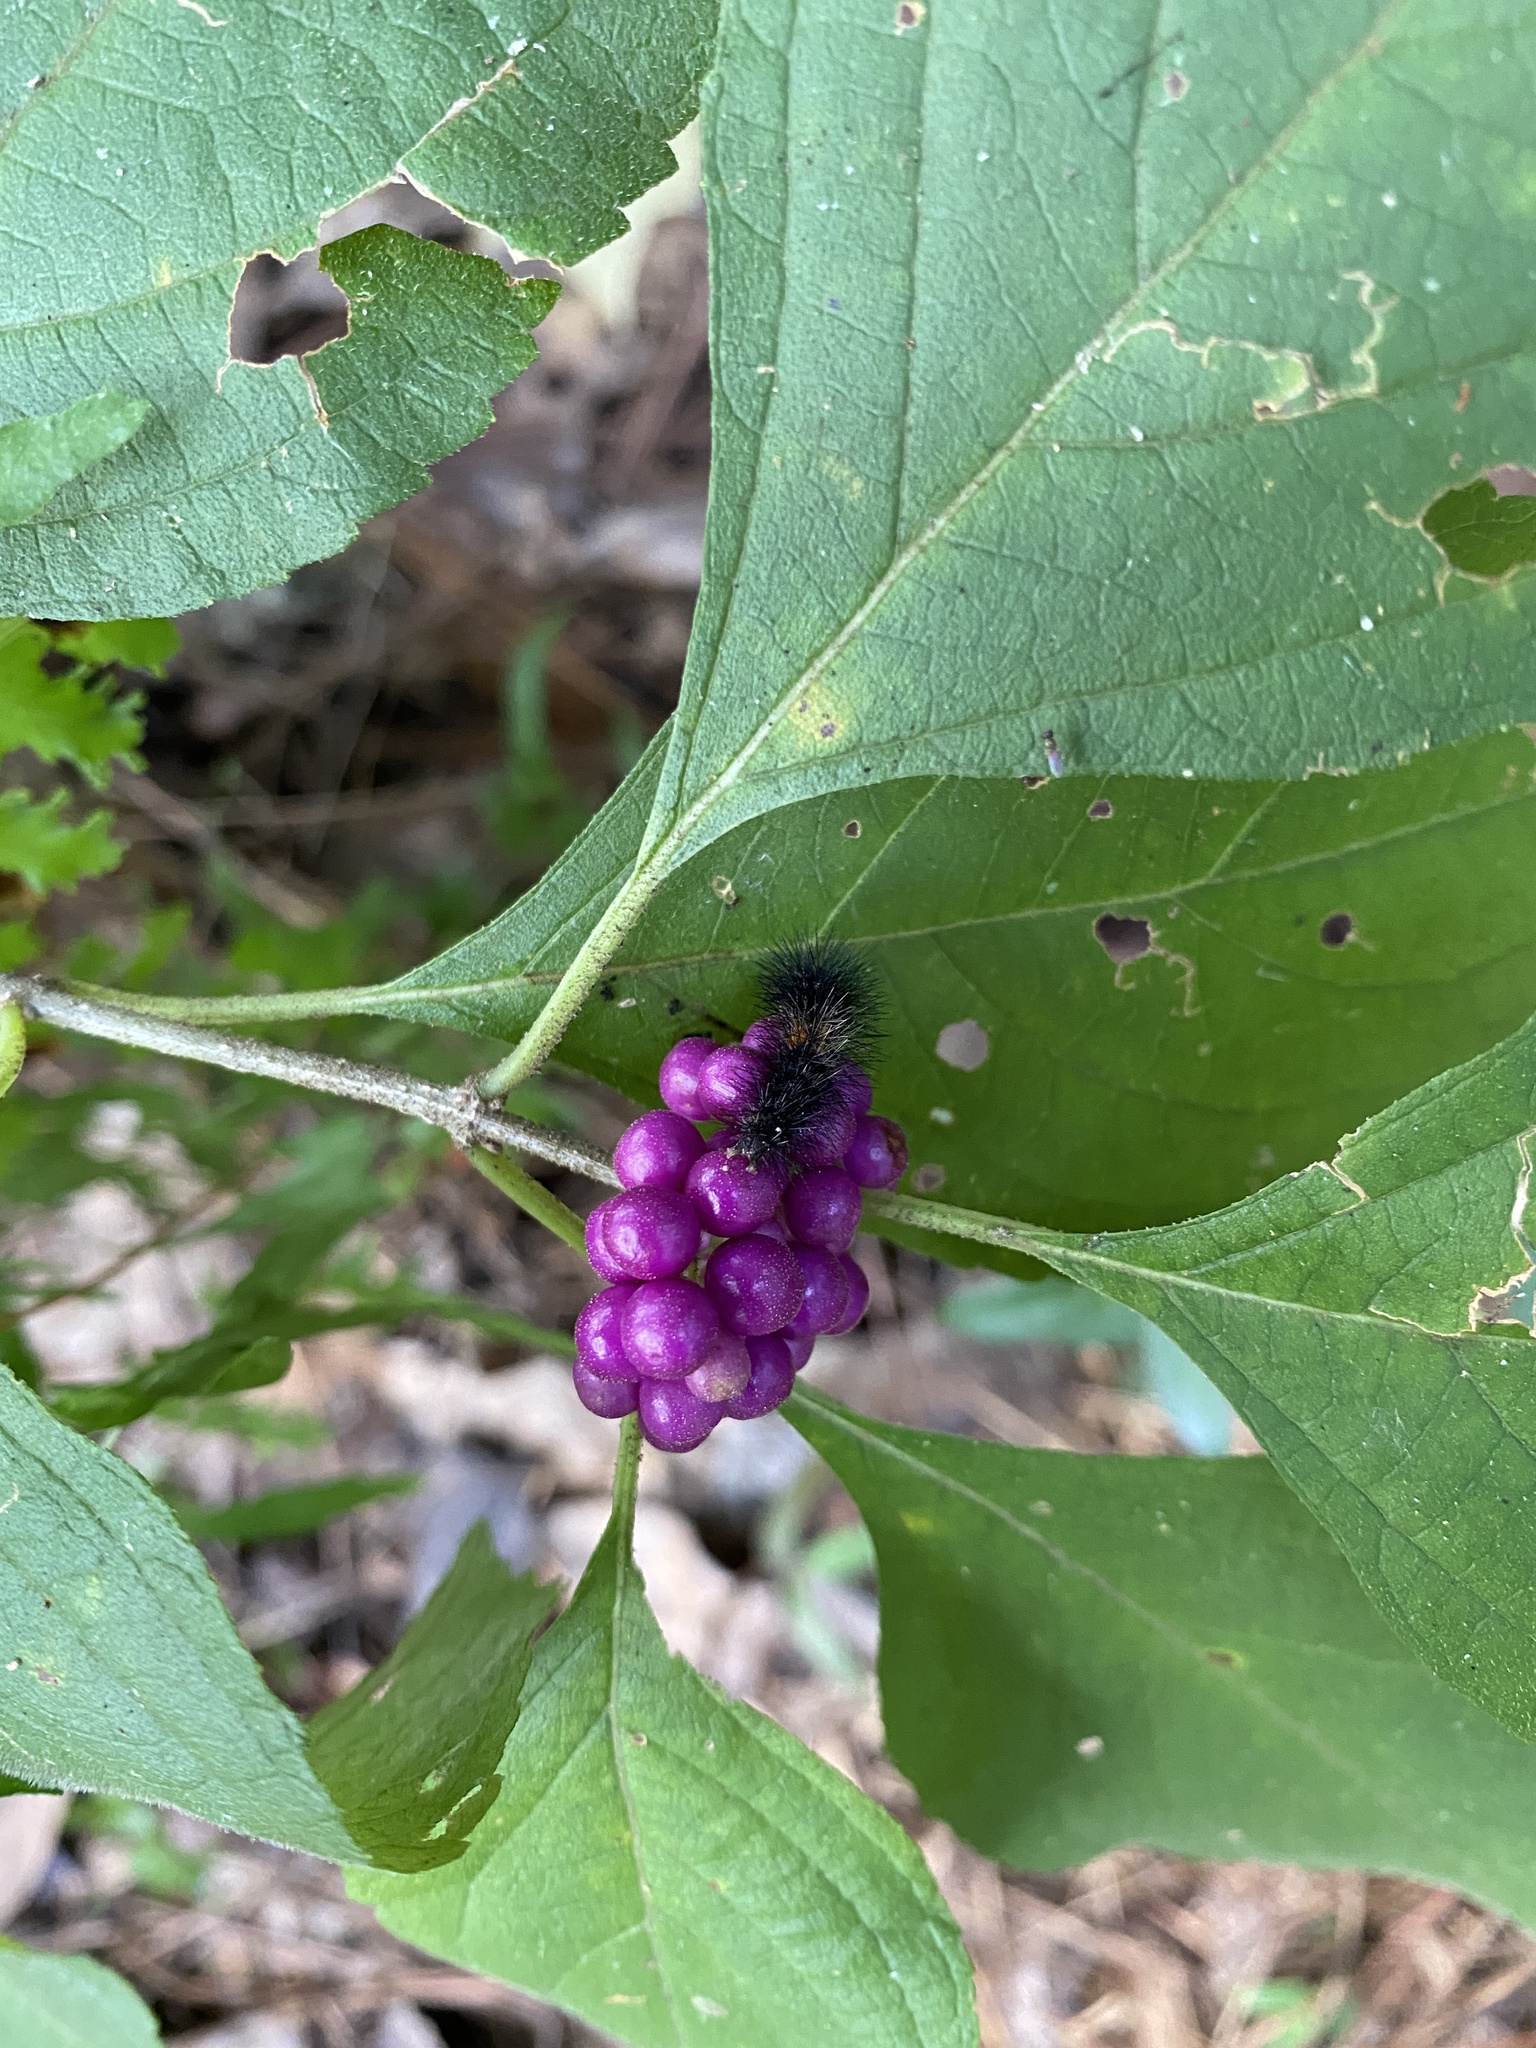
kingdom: Animalia
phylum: Arthropoda
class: Insecta
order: Lepidoptera
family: Erebidae
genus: Hypercompe
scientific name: Hypercompe scribonia
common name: Giant leopard moth
